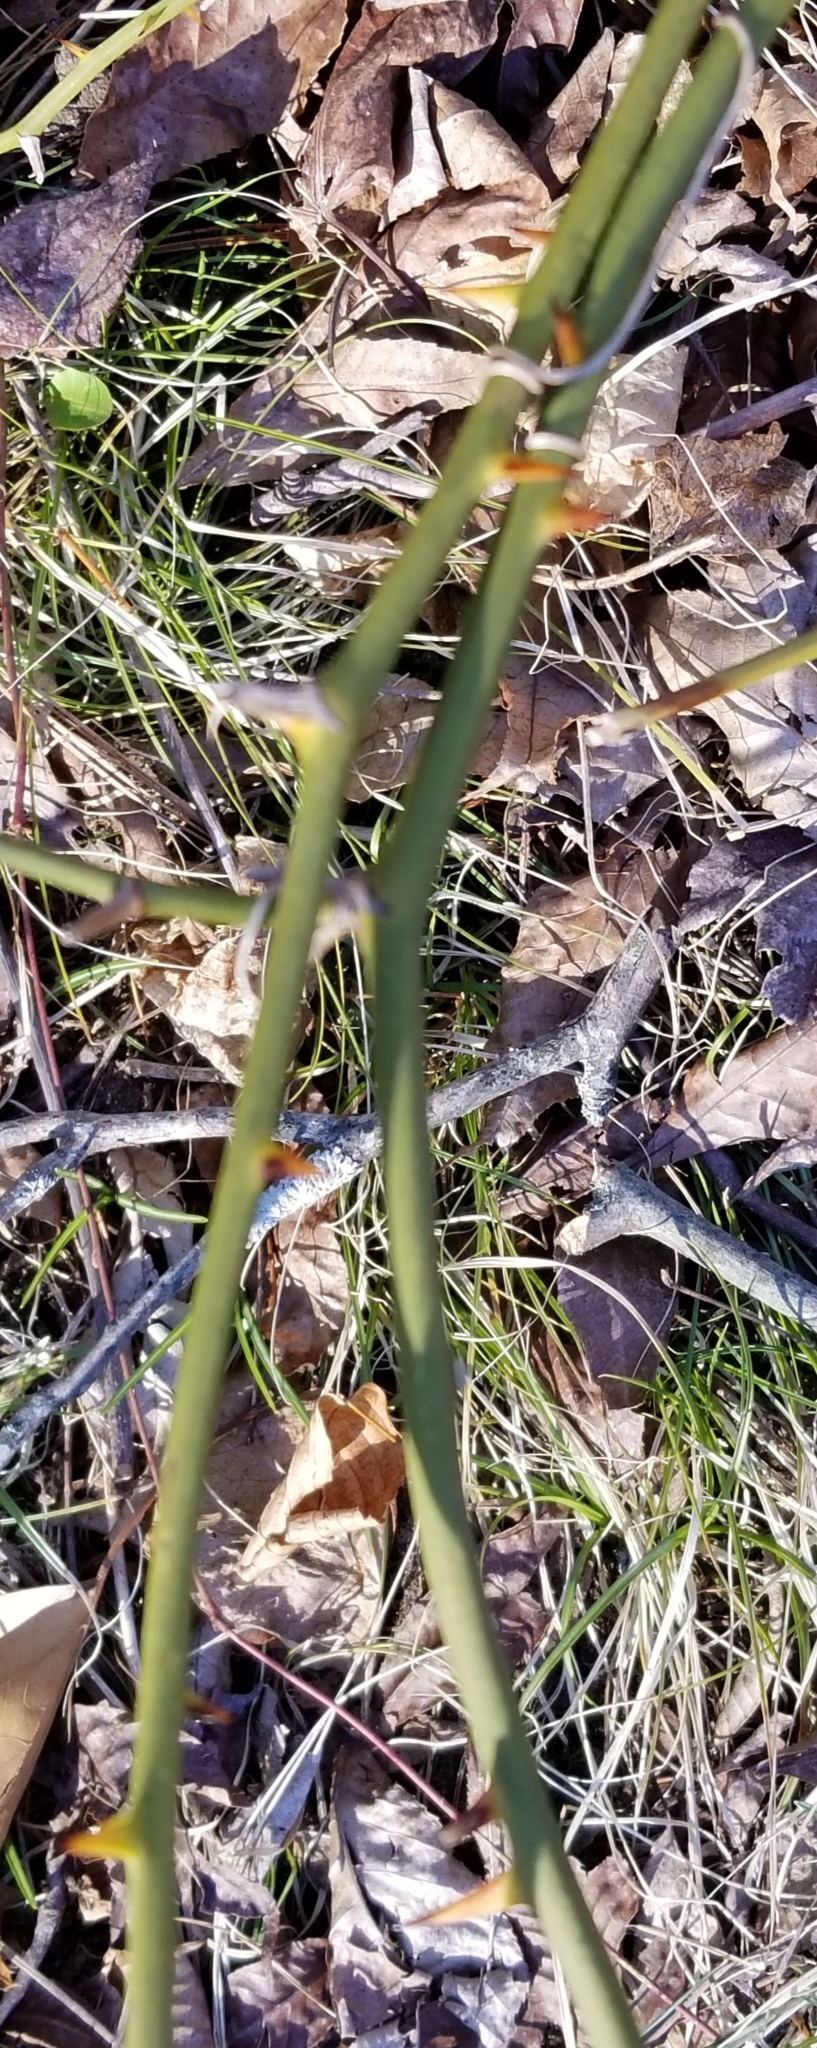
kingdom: Plantae
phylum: Tracheophyta
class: Liliopsida
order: Liliales
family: Smilacaceae
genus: Smilax
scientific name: Smilax rotundifolia
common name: Bullbriar
